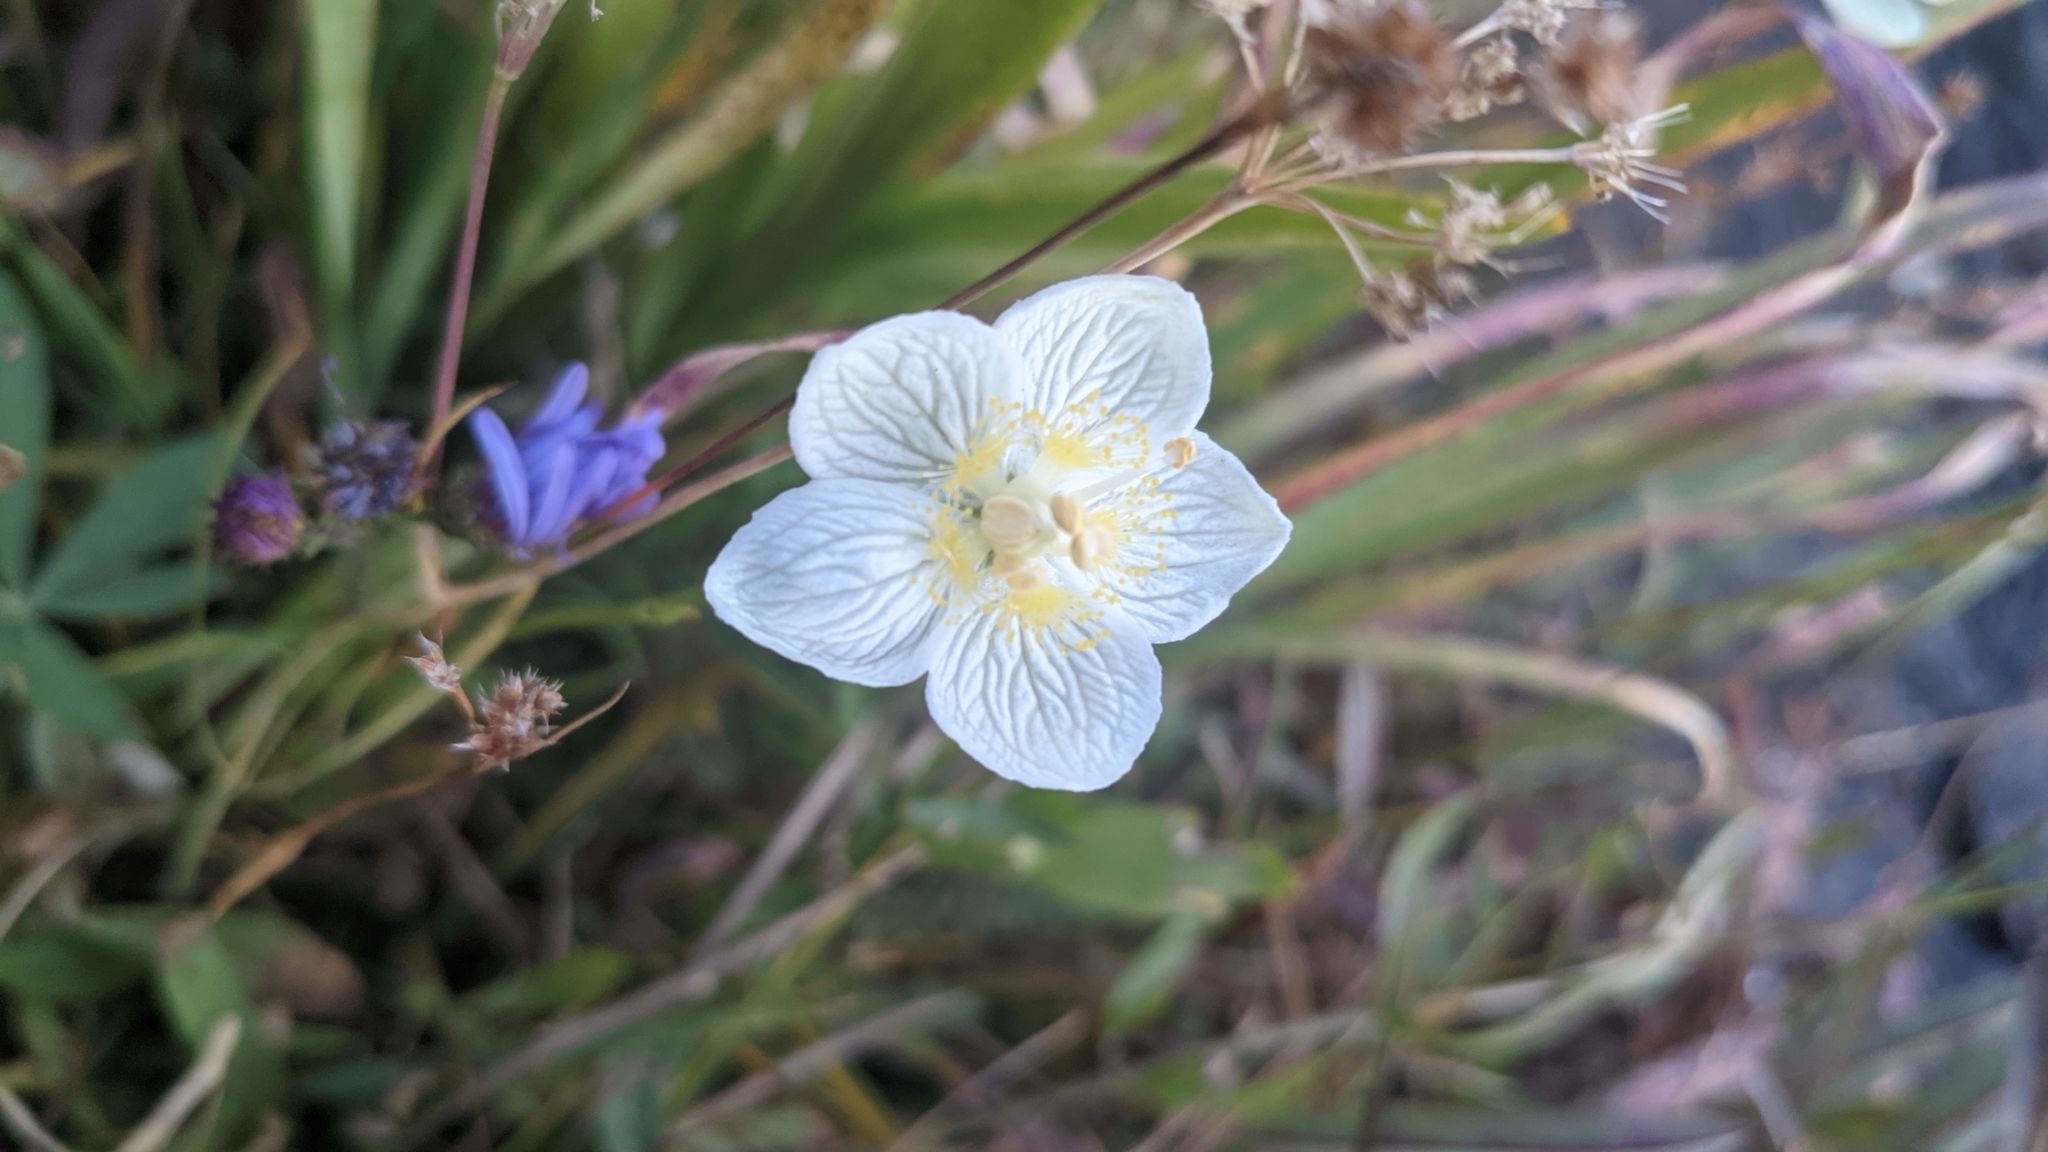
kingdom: Plantae
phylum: Tracheophyta
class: Magnoliopsida
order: Celastrales
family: Parnassiaceae
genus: Parnassia
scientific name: Parnassia palustris
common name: Grass-of-parnassus
